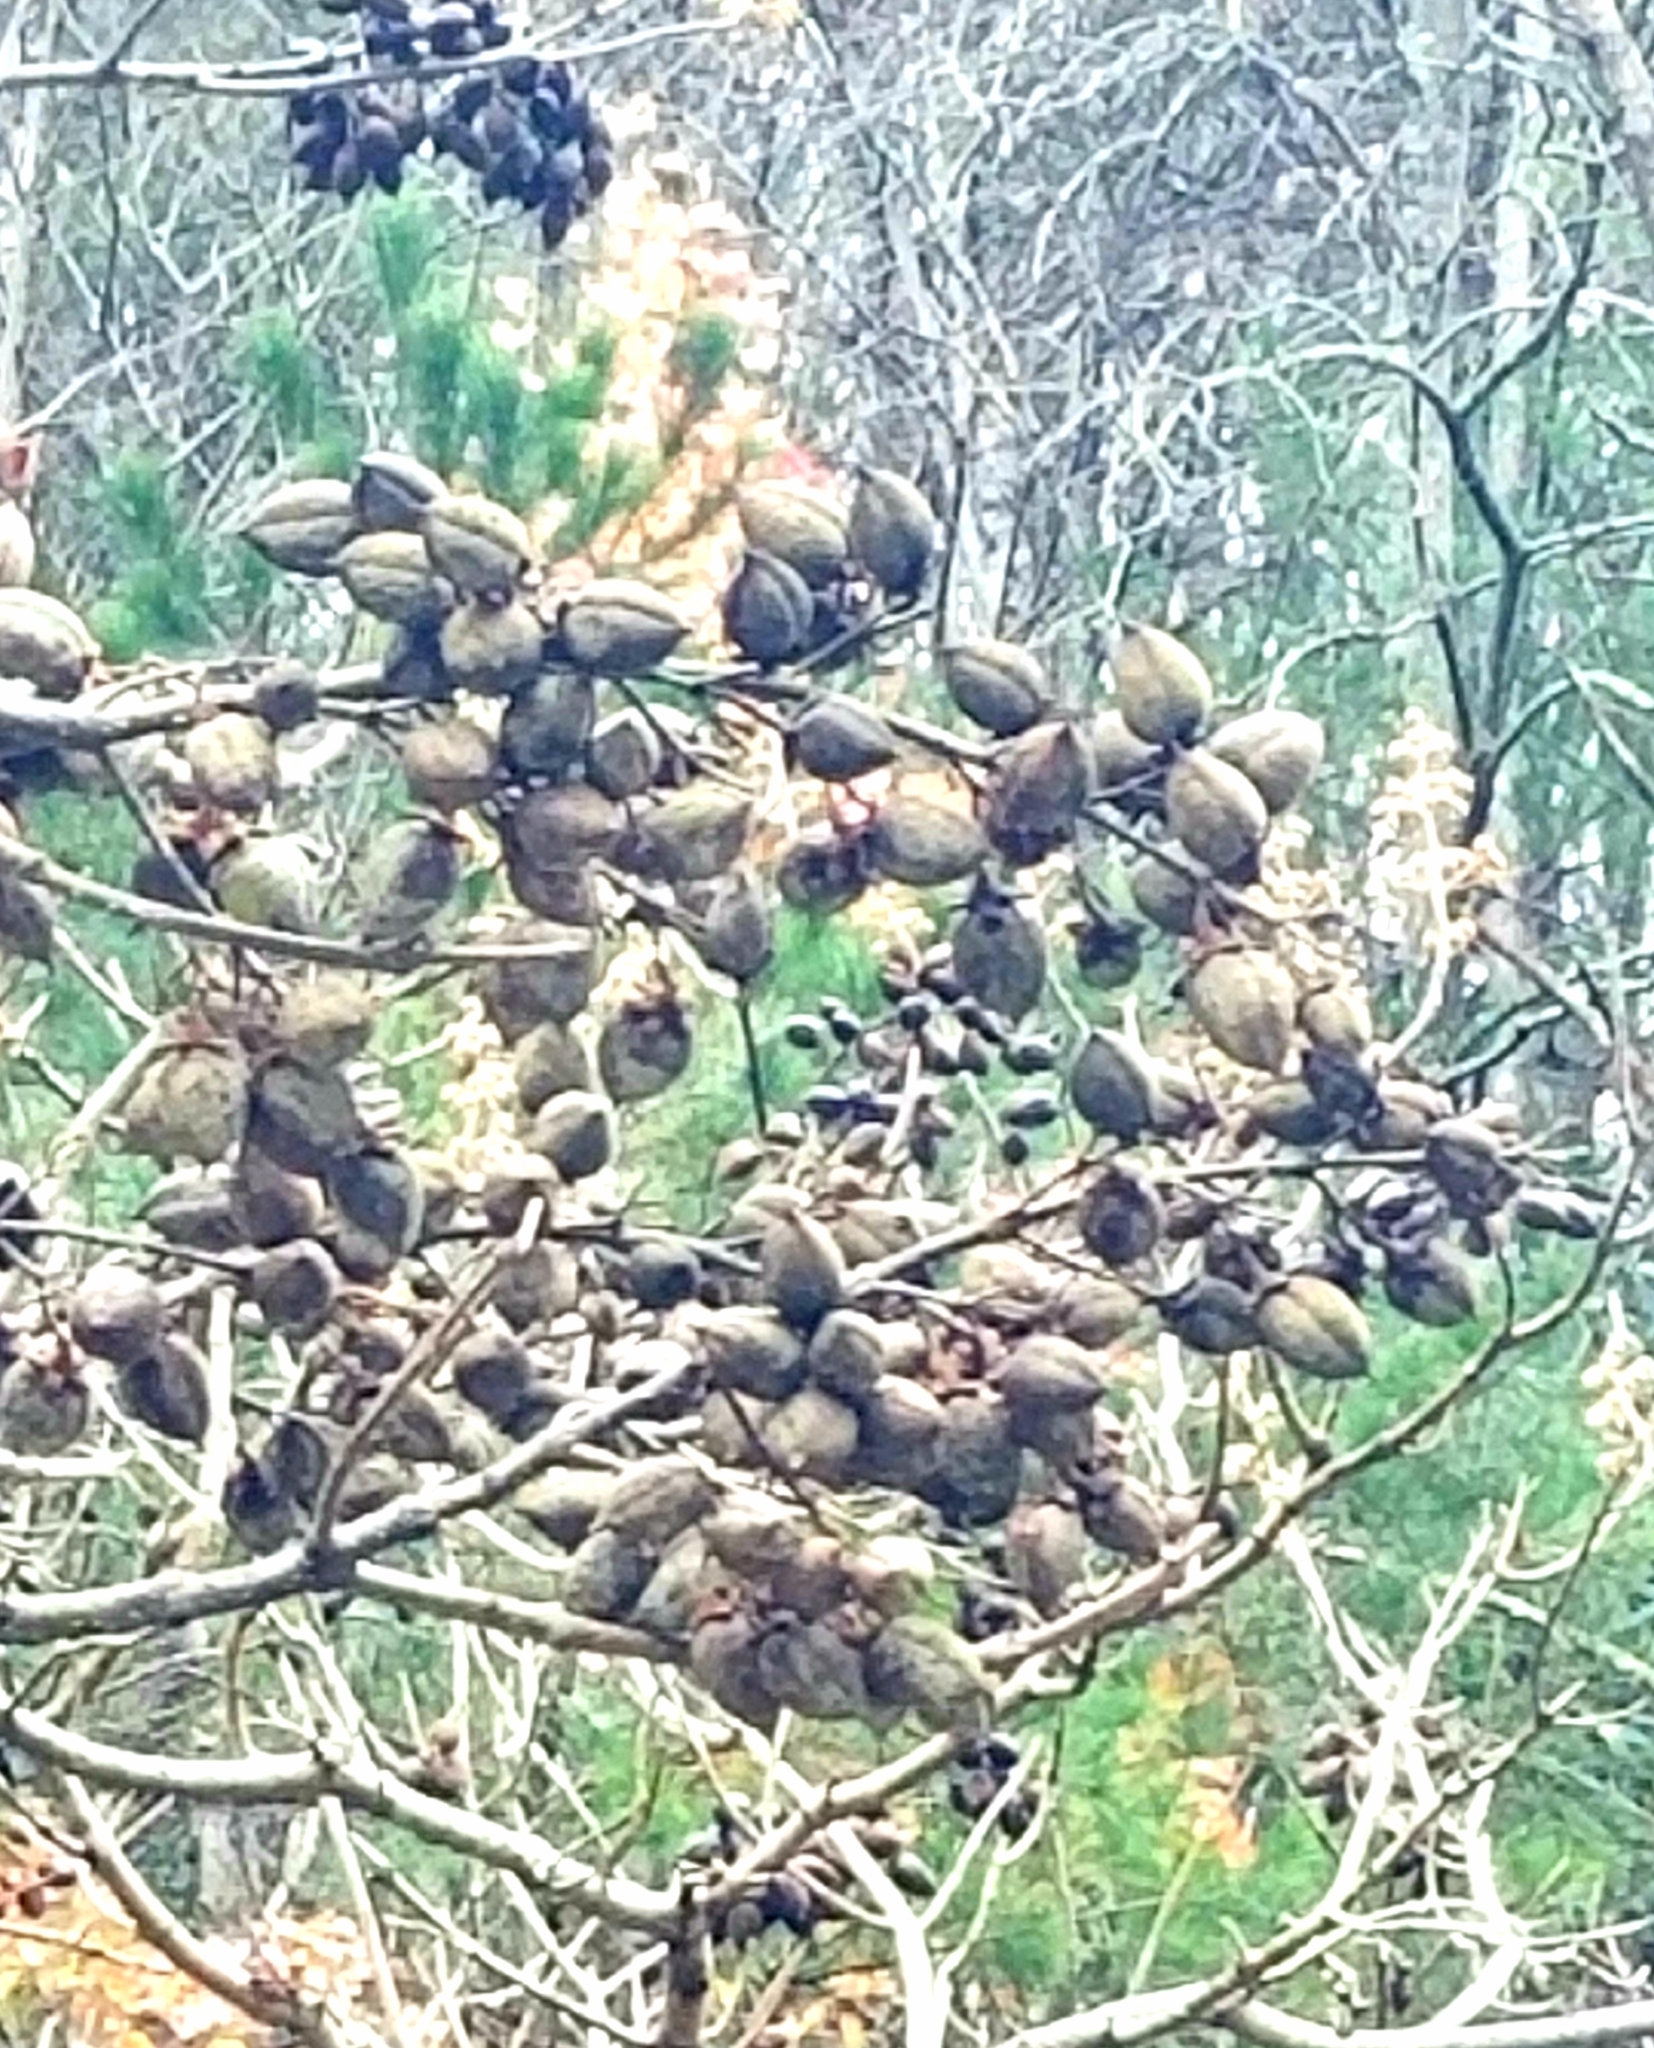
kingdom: Plantae
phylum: Tracheophyta
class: Magnoliopsida
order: Lamiales
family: Paulowniaceae
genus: Paulownia
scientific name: Paulownia tomentosa
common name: Foxglove-tree
